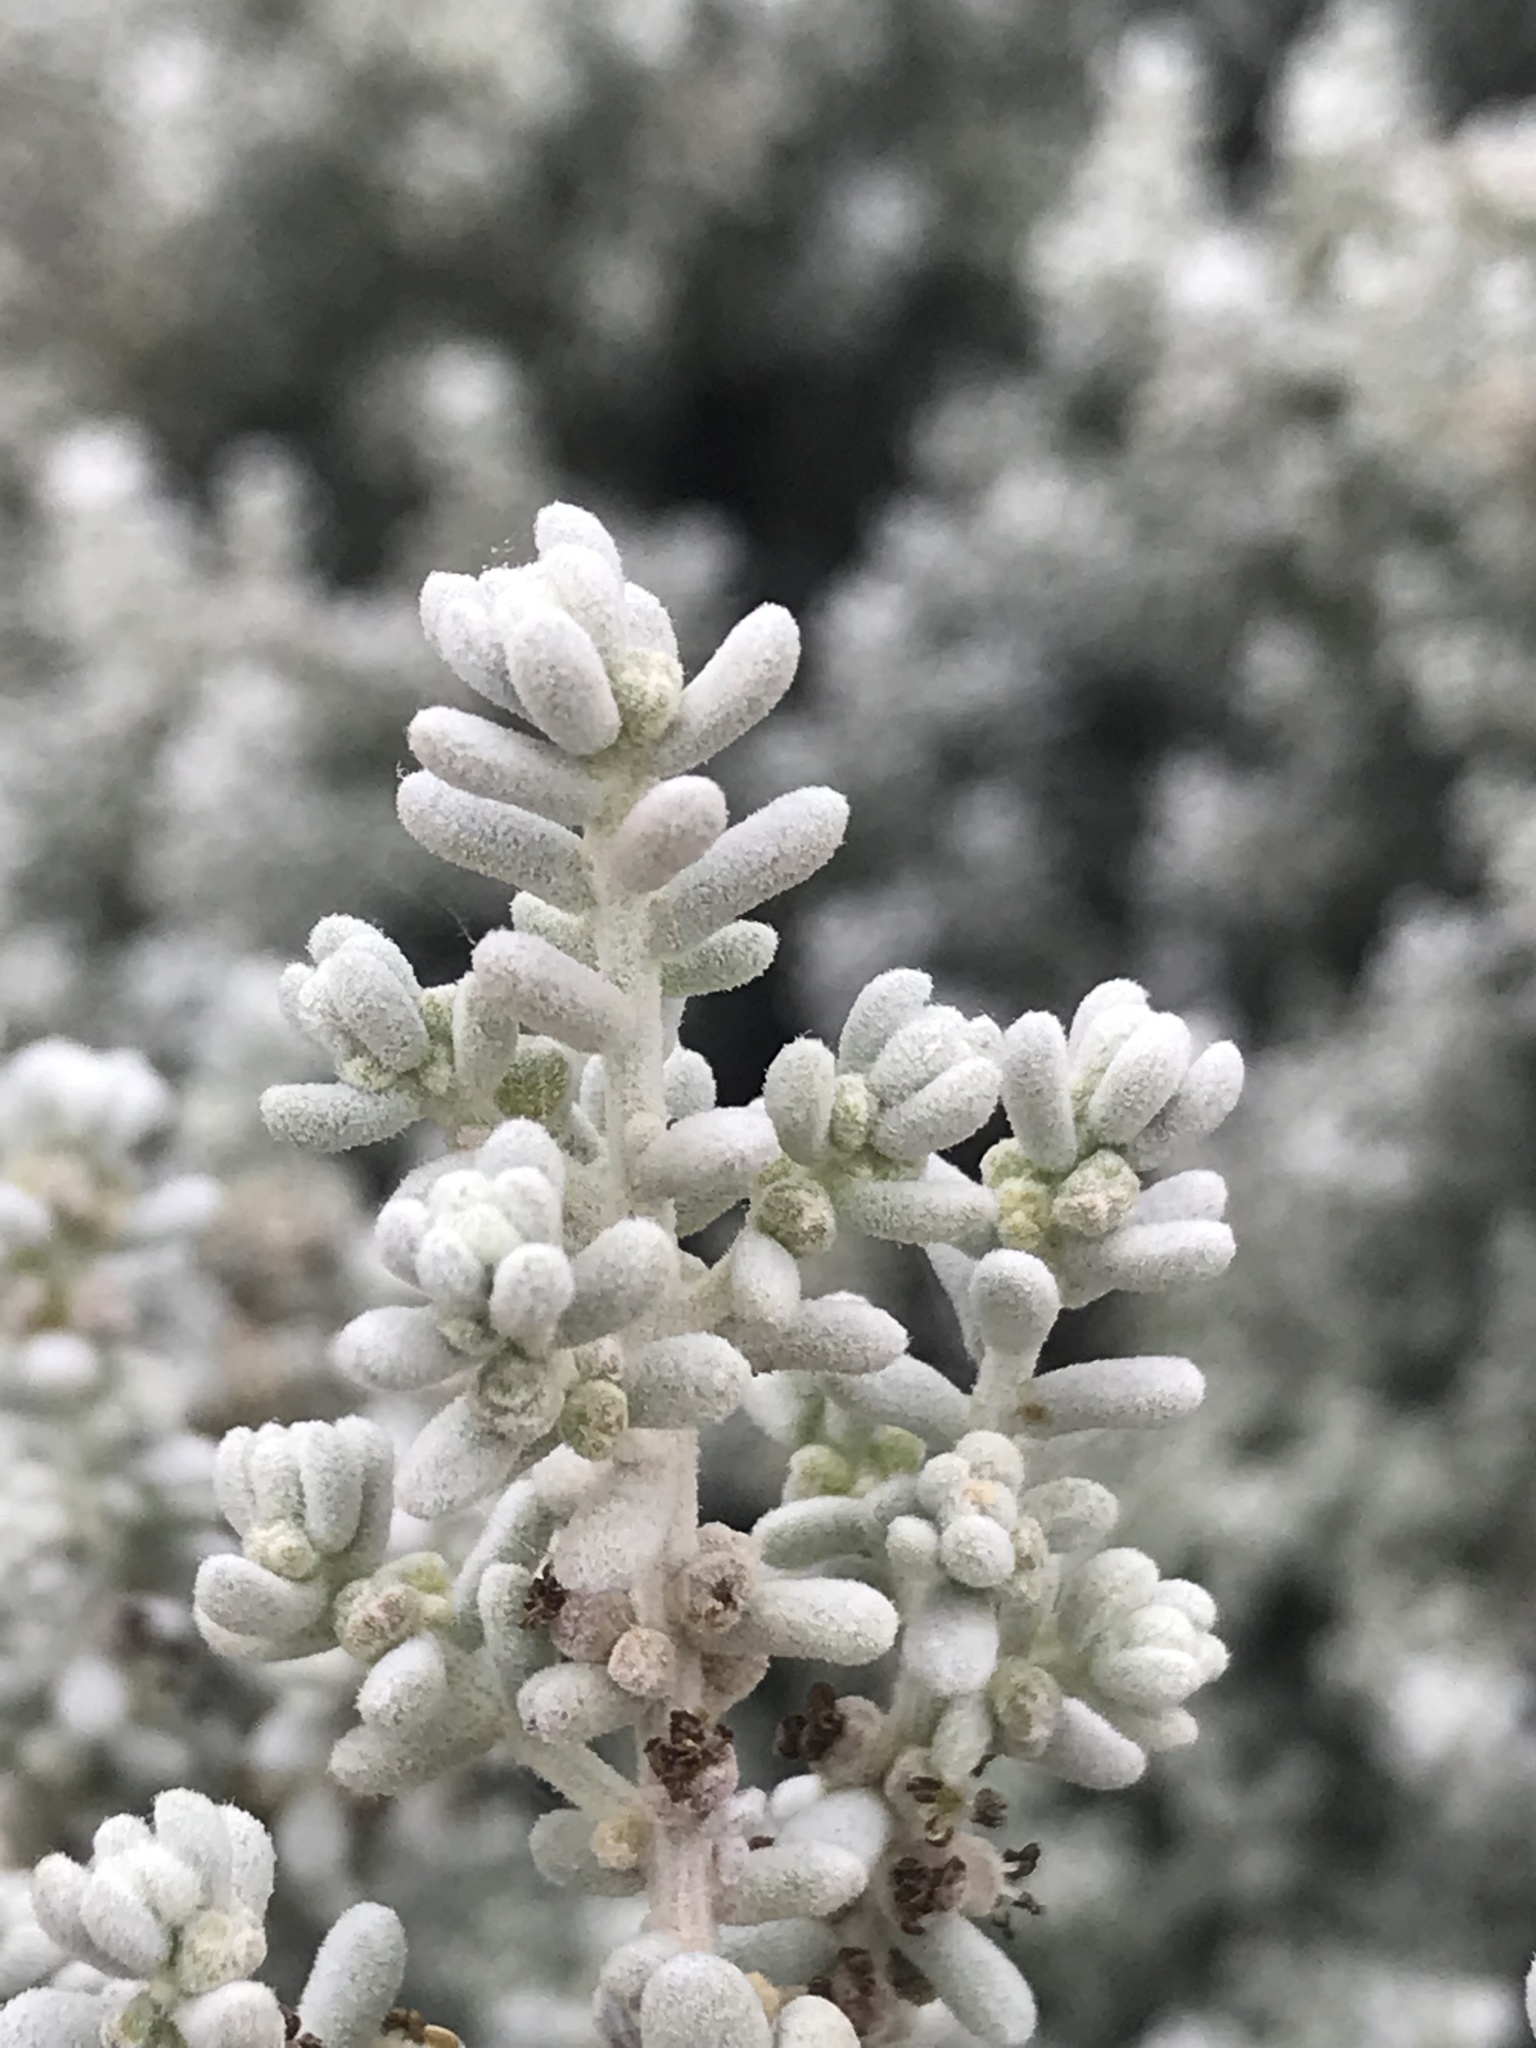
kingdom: Plantae
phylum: Tracheophyta
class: Magnoliopsida
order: Caryophyllales
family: Amaranthaceae
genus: Maireana
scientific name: Maireana sedifolia
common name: Hoary bluebush
